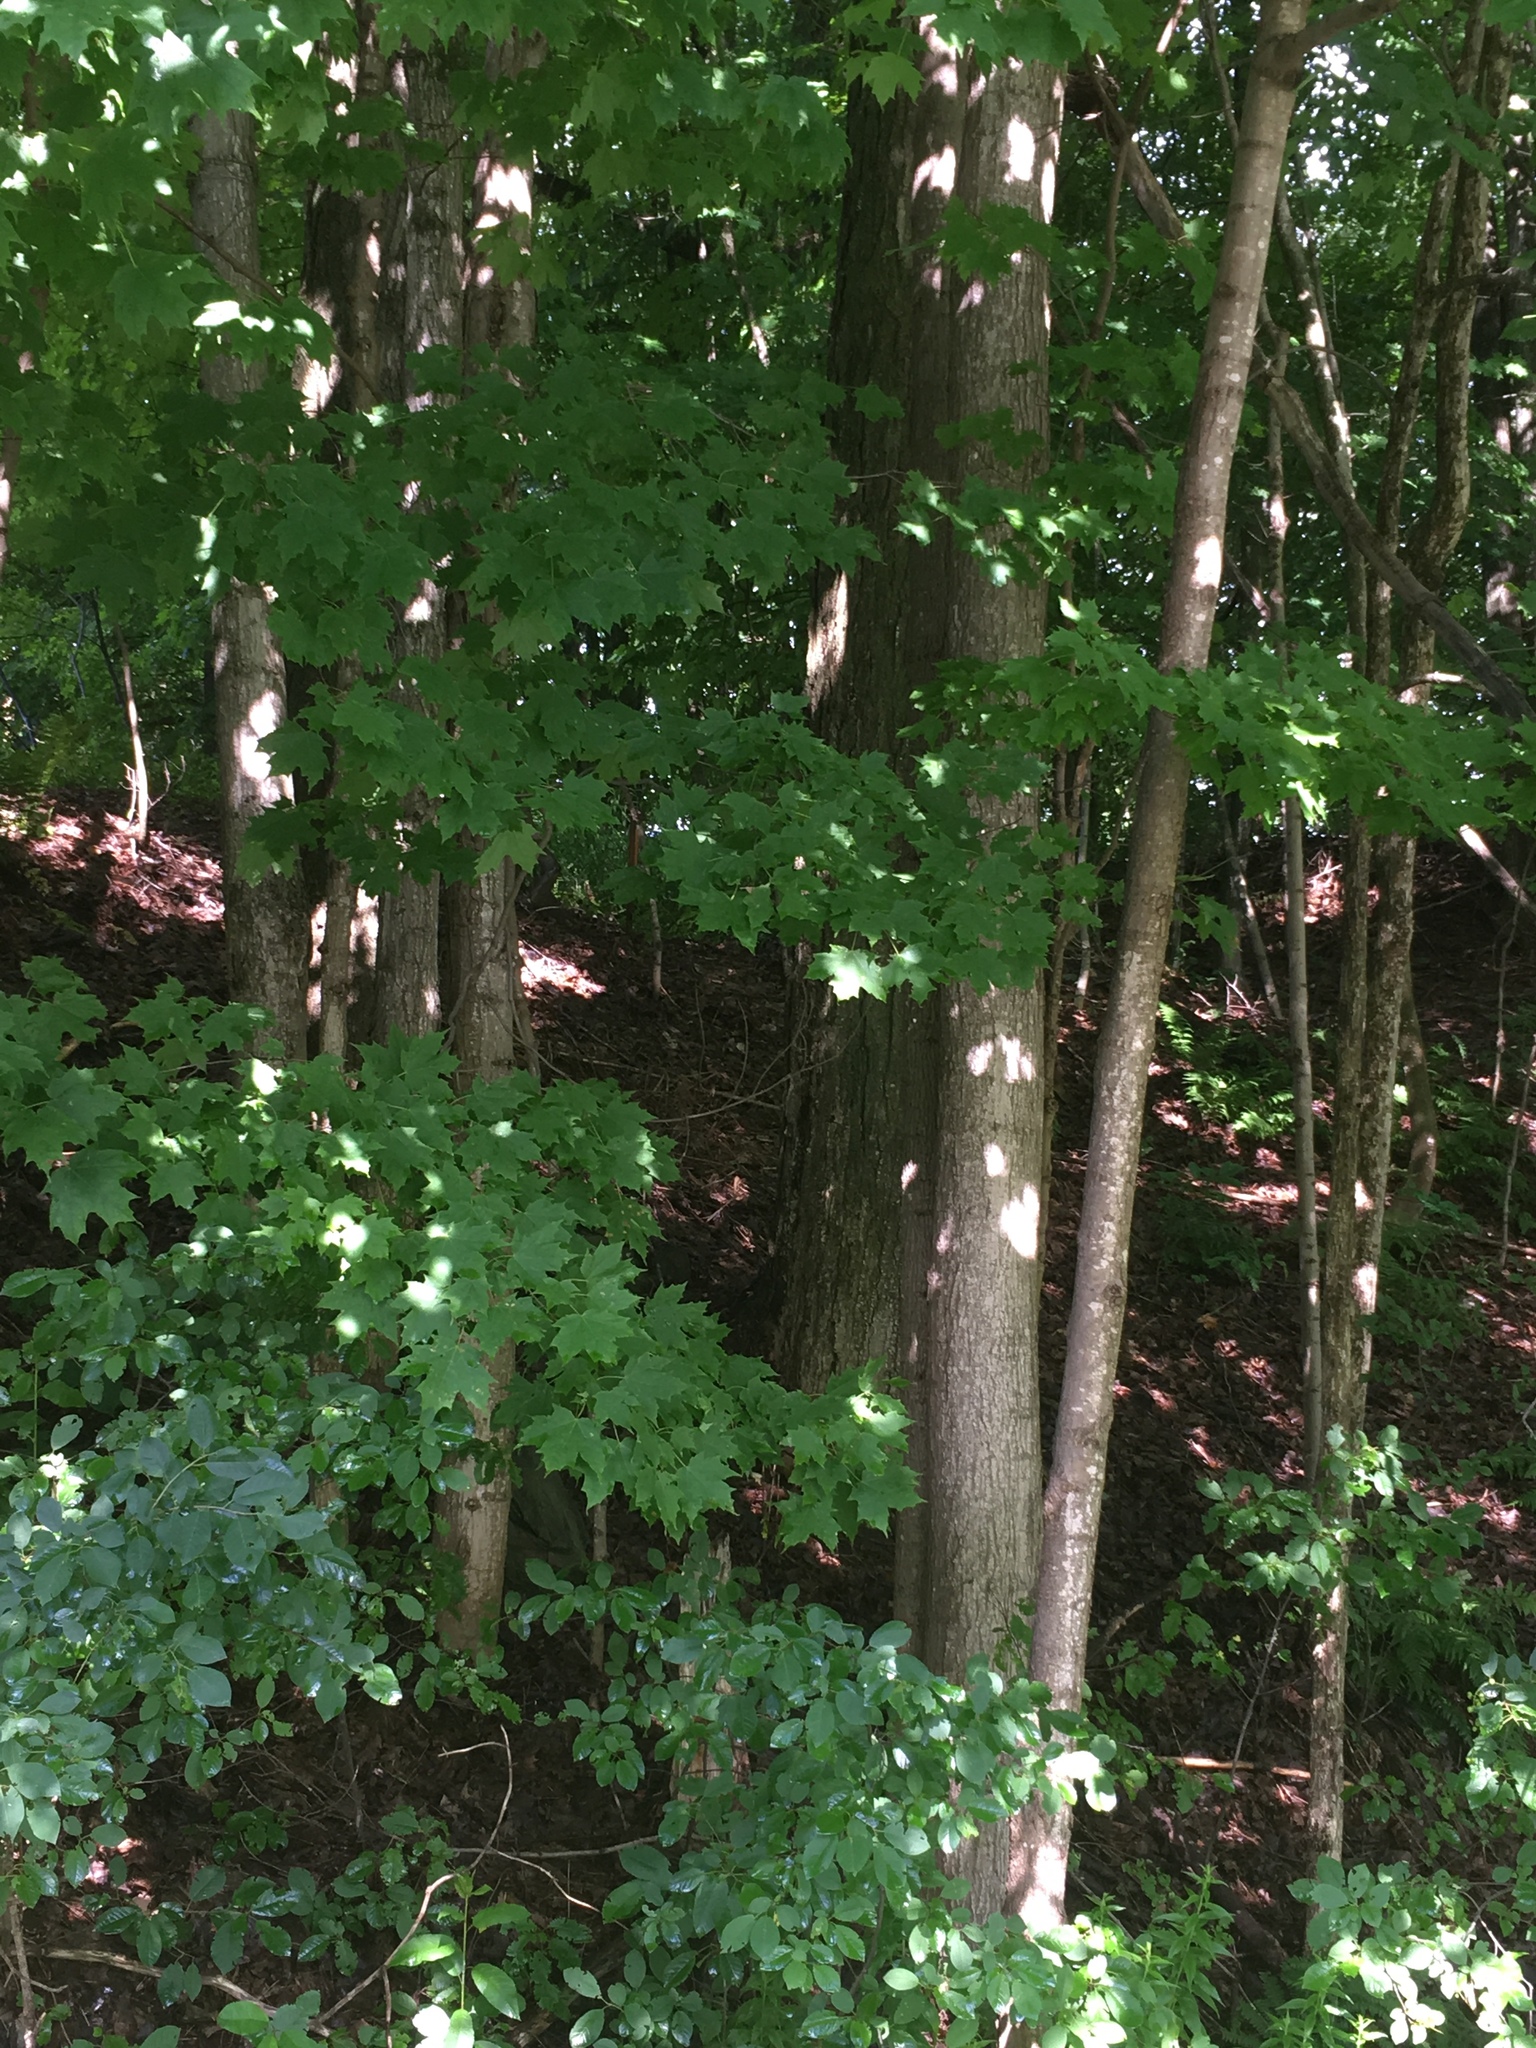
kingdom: Plantae
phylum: Tracheophyta
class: Magnoliopsida
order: Sapindales
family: Sapindaceae
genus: Acer
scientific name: Acer saccharum
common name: Sugar maple
